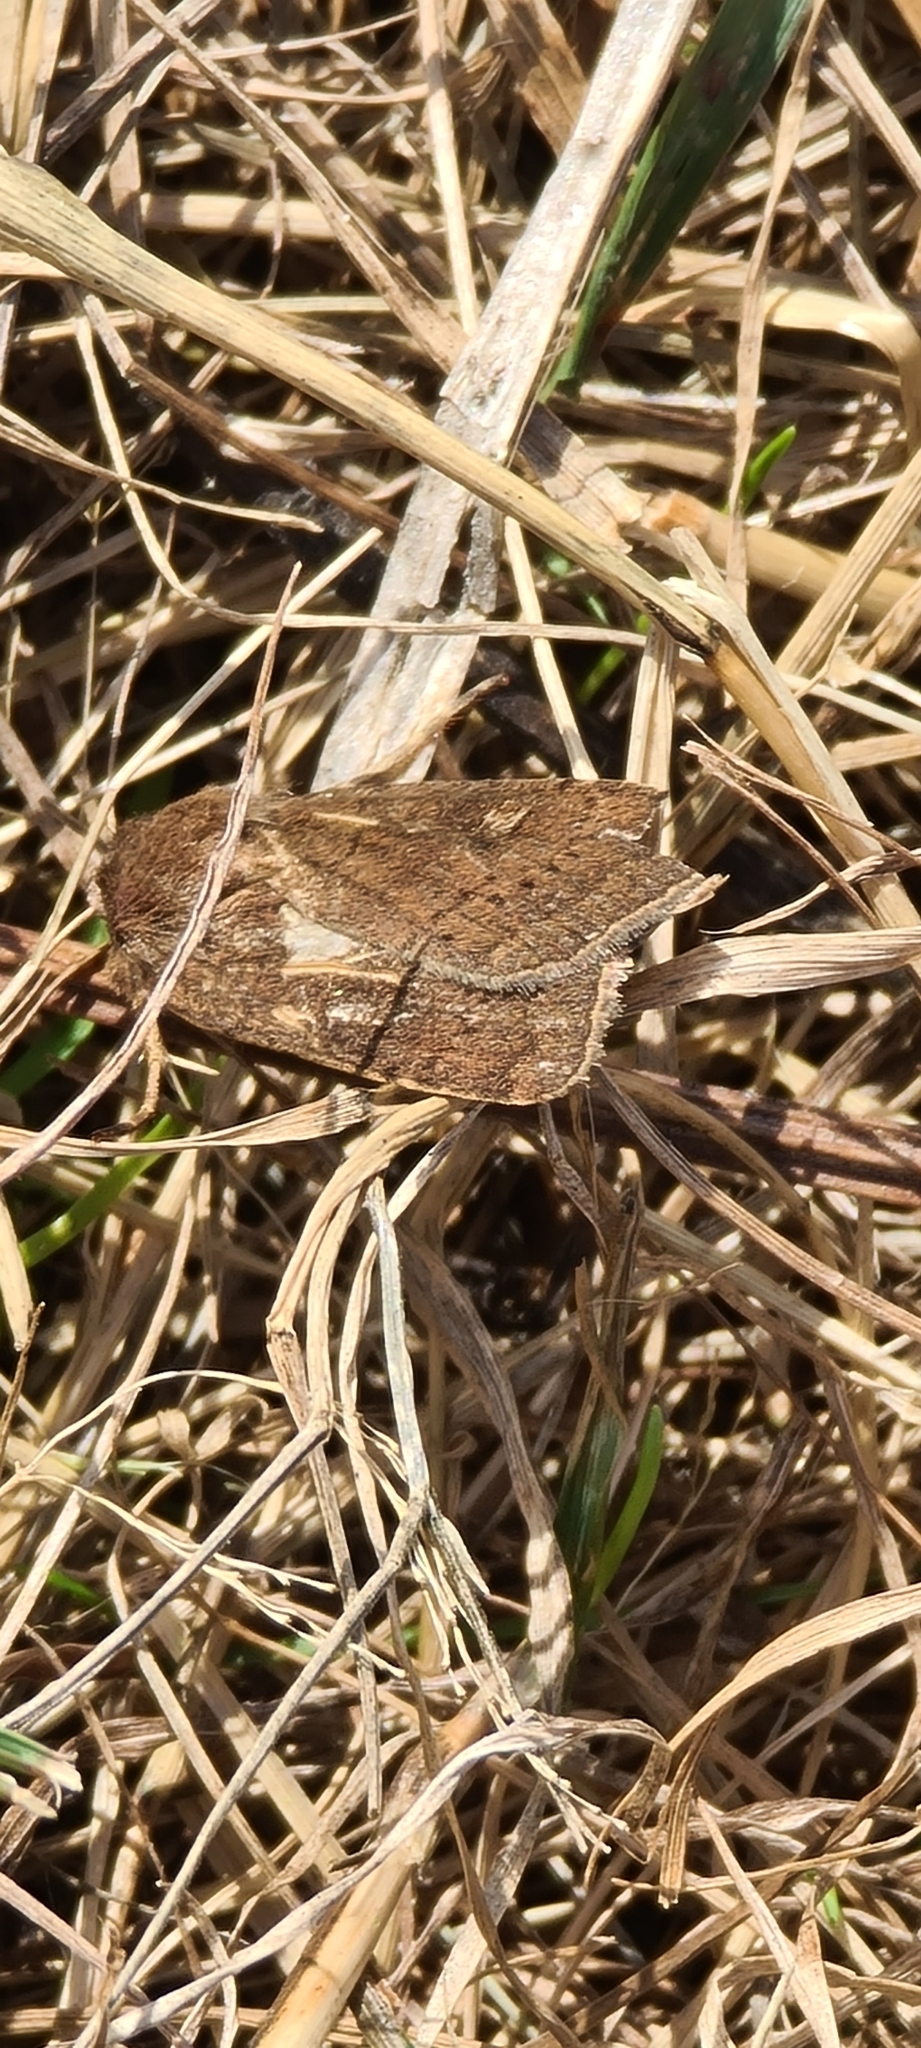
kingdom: Animalia
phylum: Arthropoda
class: Insecta
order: Lepidoptera
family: Noctuidae
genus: Xestia
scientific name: Xestia xanthographa
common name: Square-spot rustic
